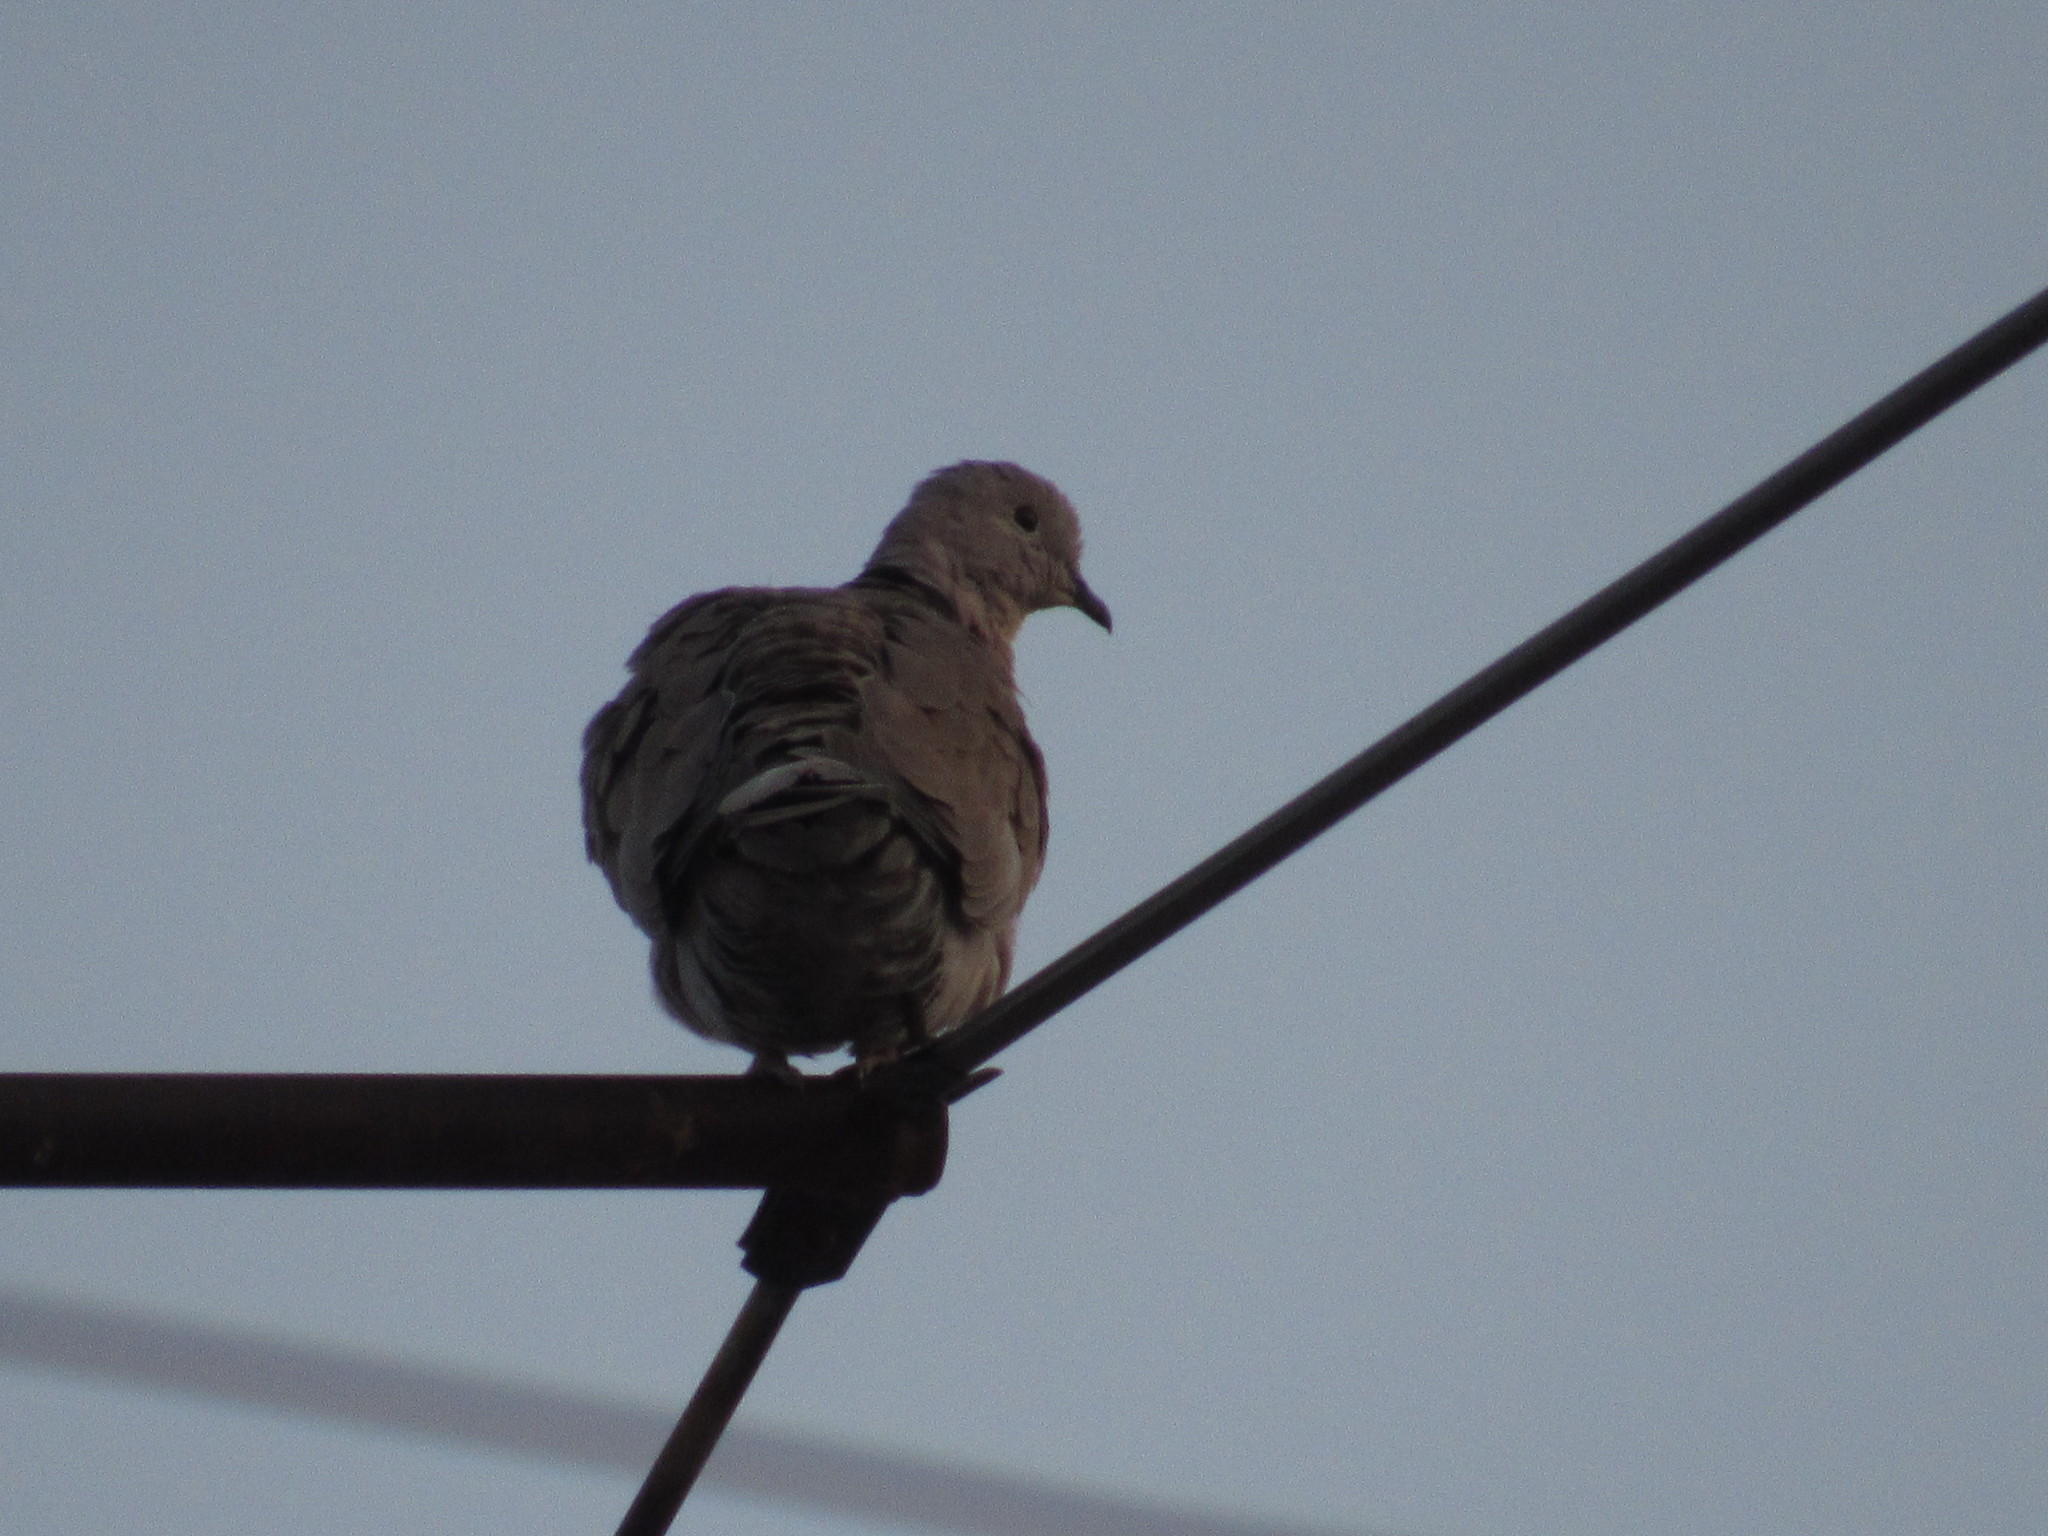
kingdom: Animalia
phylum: Chordata
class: Aves
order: Columbiformes
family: Columbidae
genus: Streptopelia
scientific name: Streptopelia decaocto
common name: Eurasian collared dove
